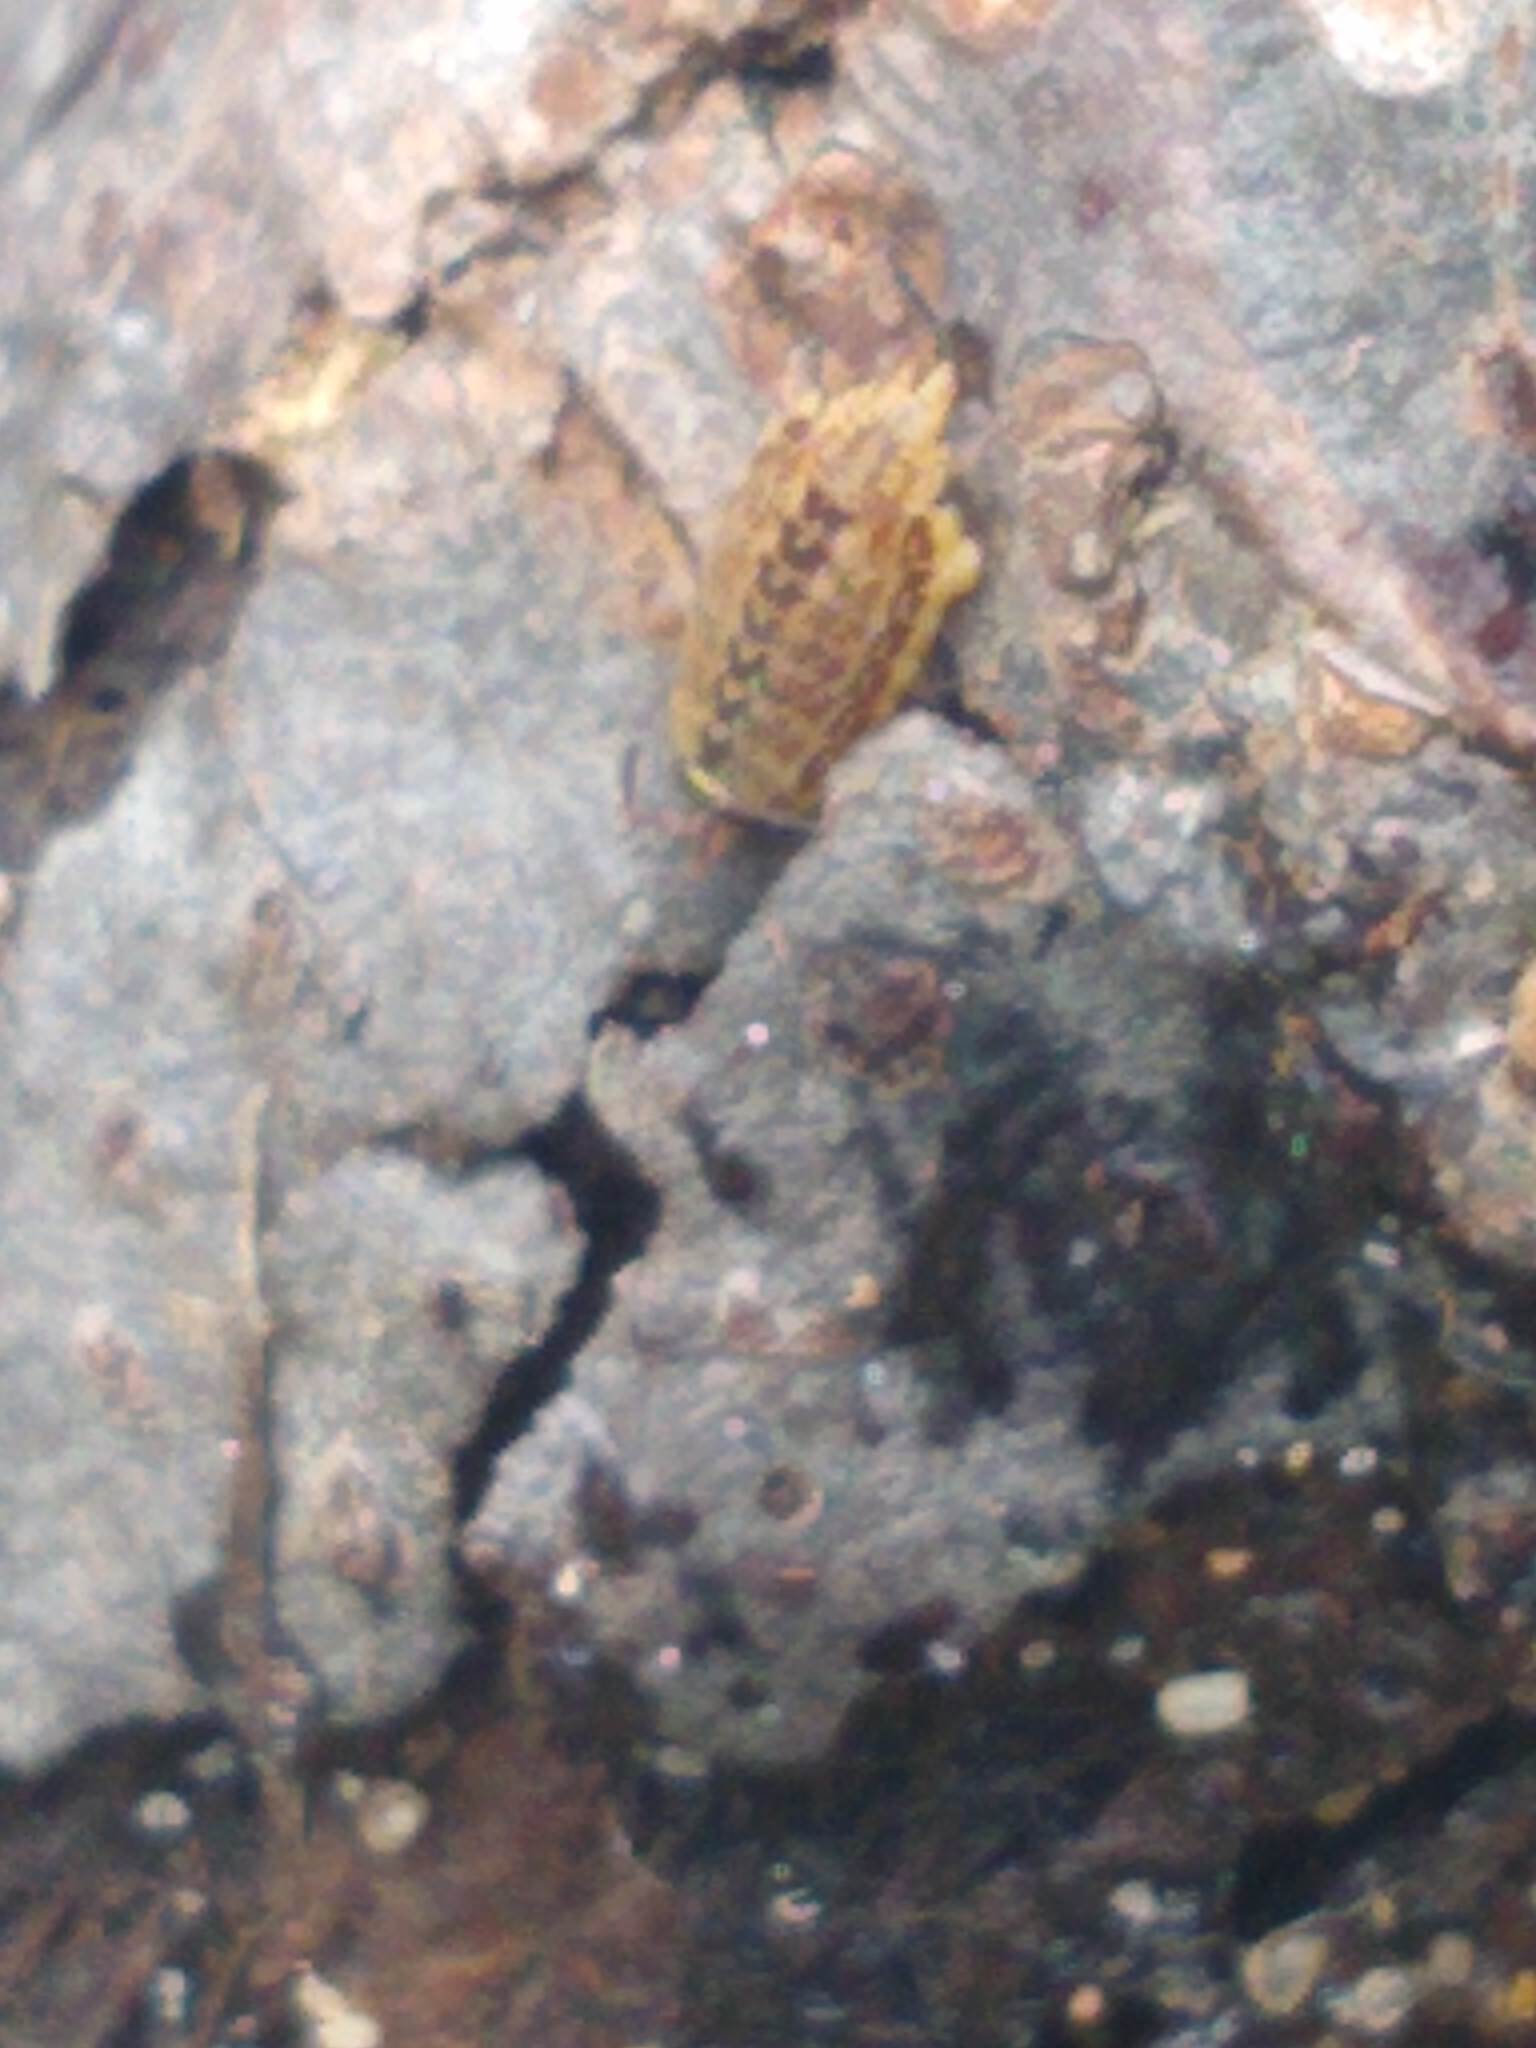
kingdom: Animalia
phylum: Arthropoda
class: Malacostraca
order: Isopoda
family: Philosciidae
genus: Philoscia
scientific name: Philoscia muscorum
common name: Common striped woodlouse
